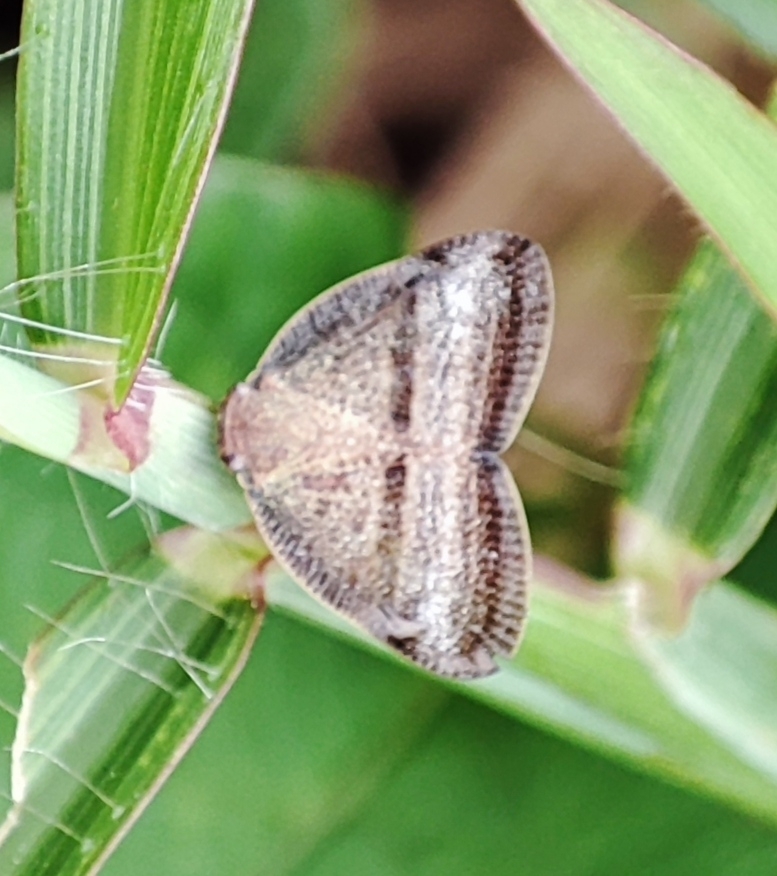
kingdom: Animalia
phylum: Arthropoda
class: Insecta
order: Hemiptera
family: Ricaniidae
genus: Ricania
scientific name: Ricania taeniata
